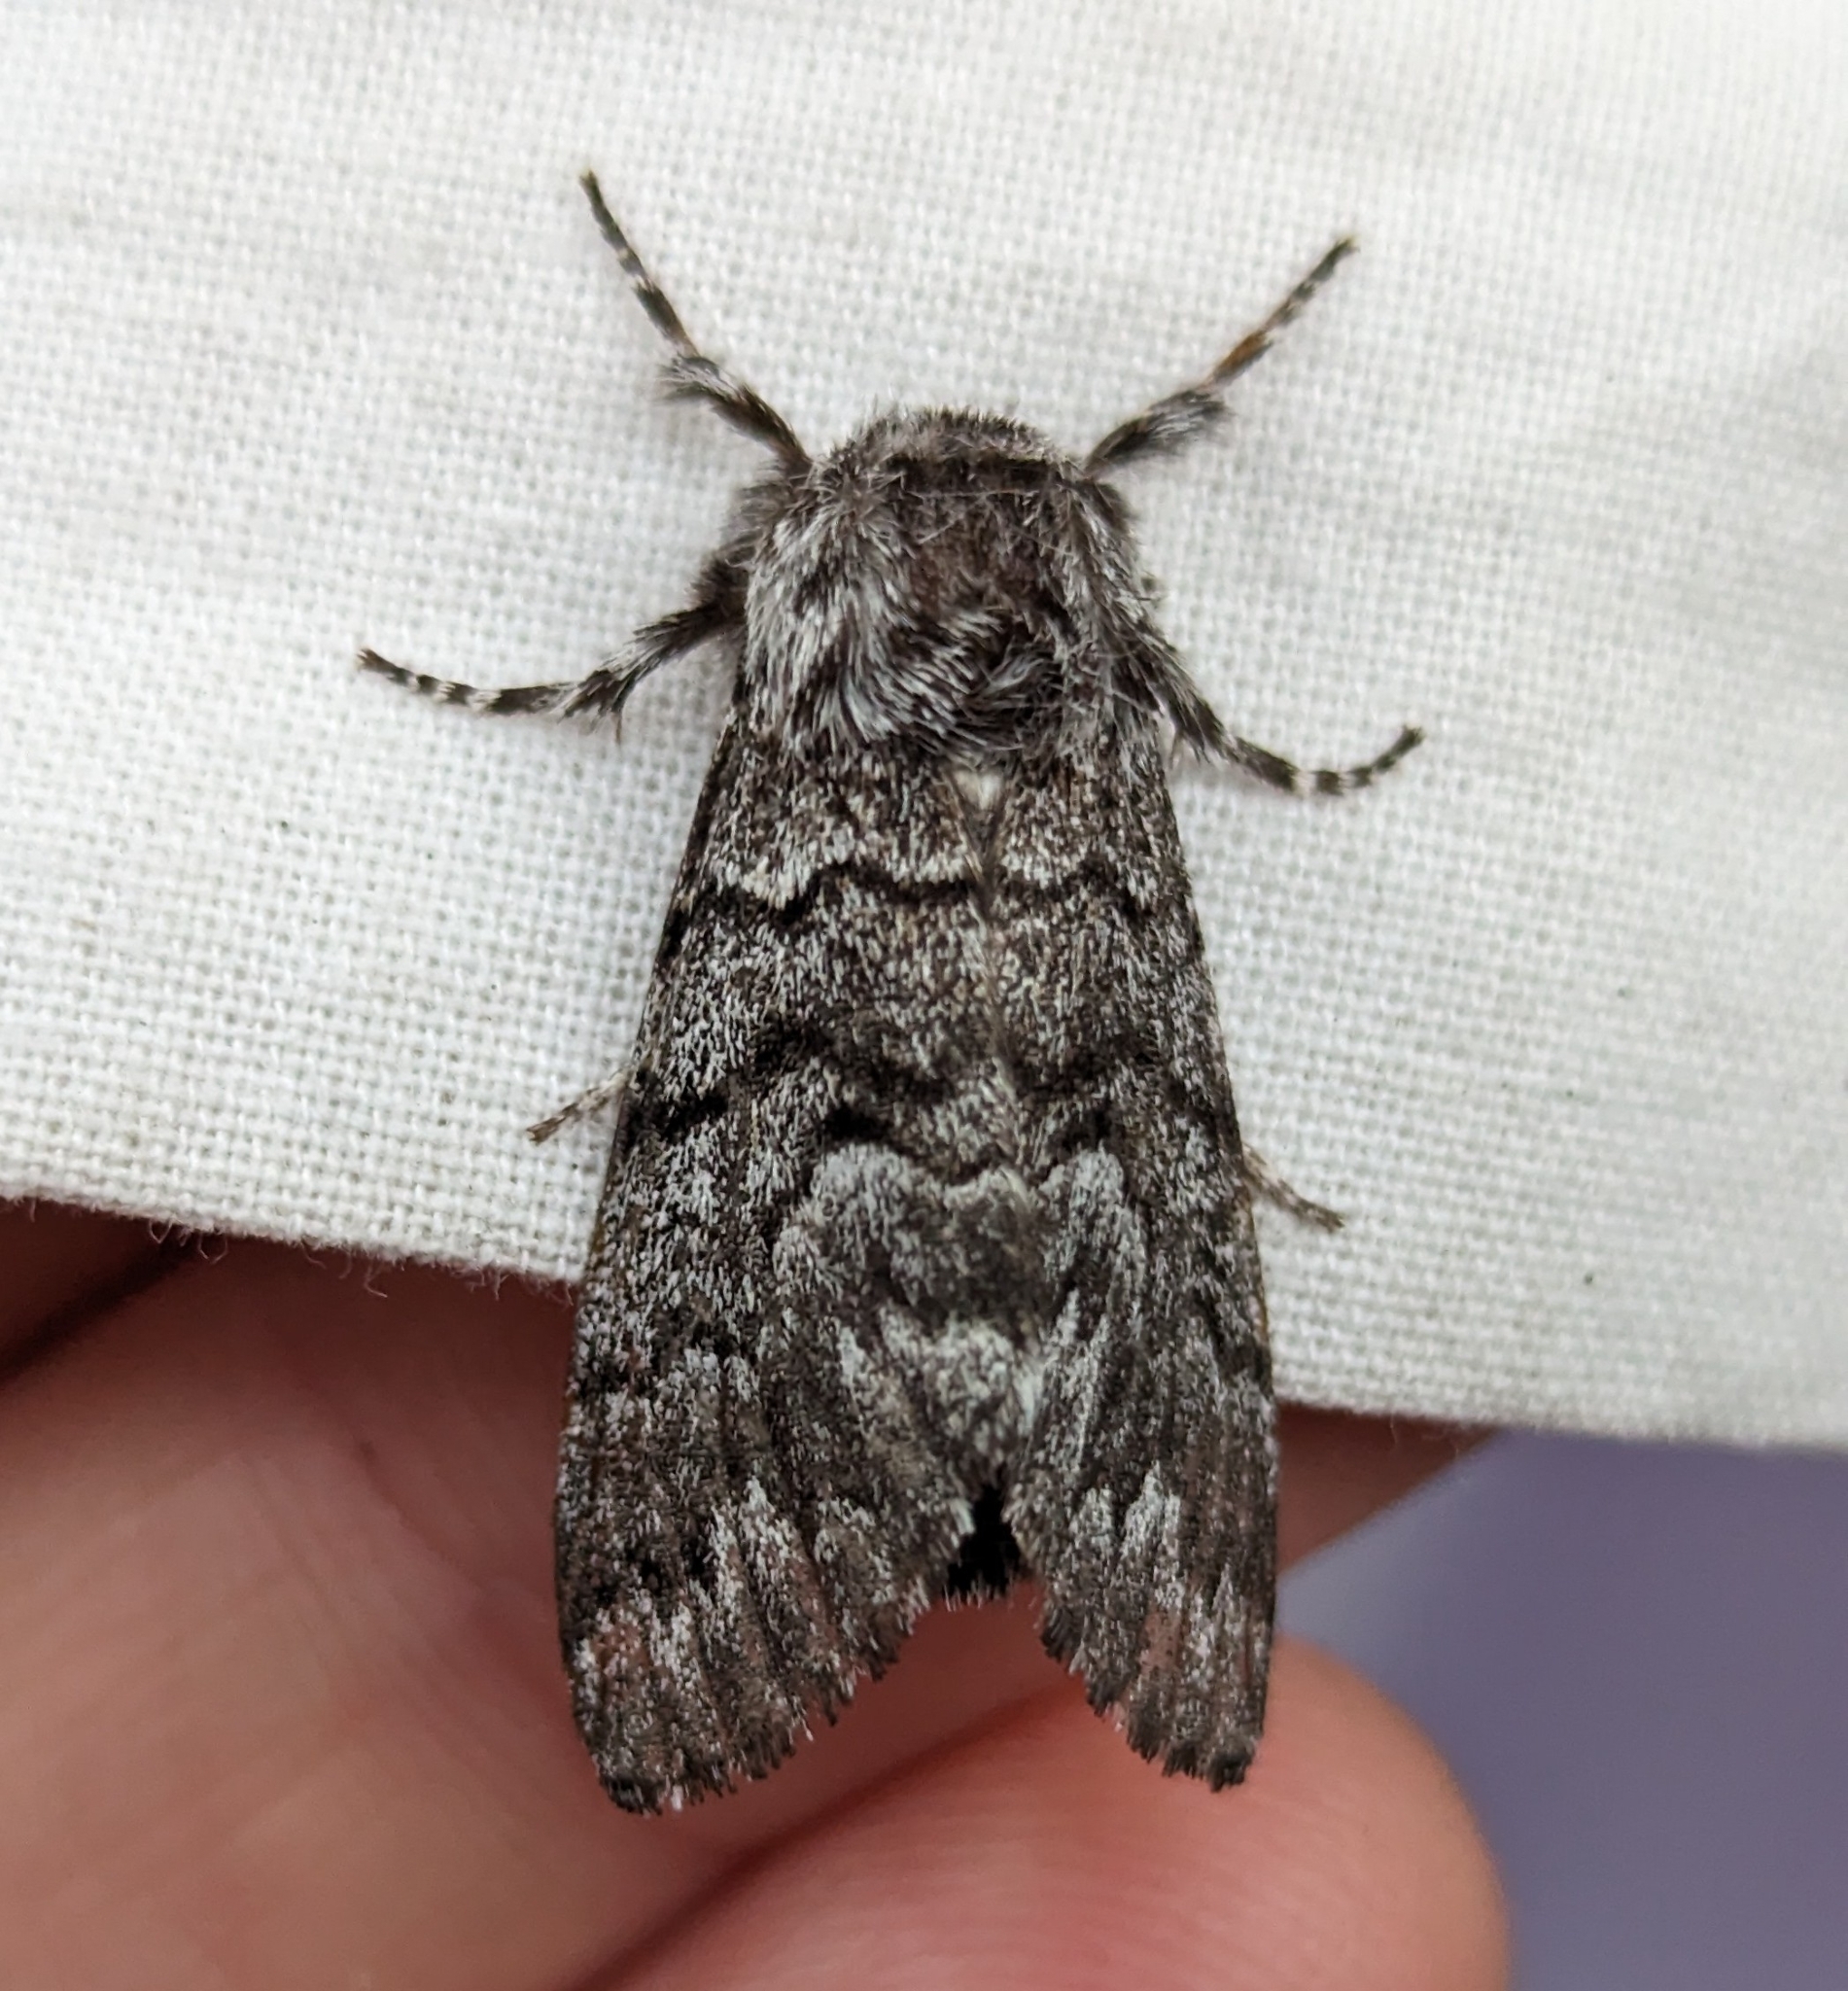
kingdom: Animalia
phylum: Arthropoda
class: Insecta
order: Lepidoptera
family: Noctuidae
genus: Panthea
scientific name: Panthea virginarius
